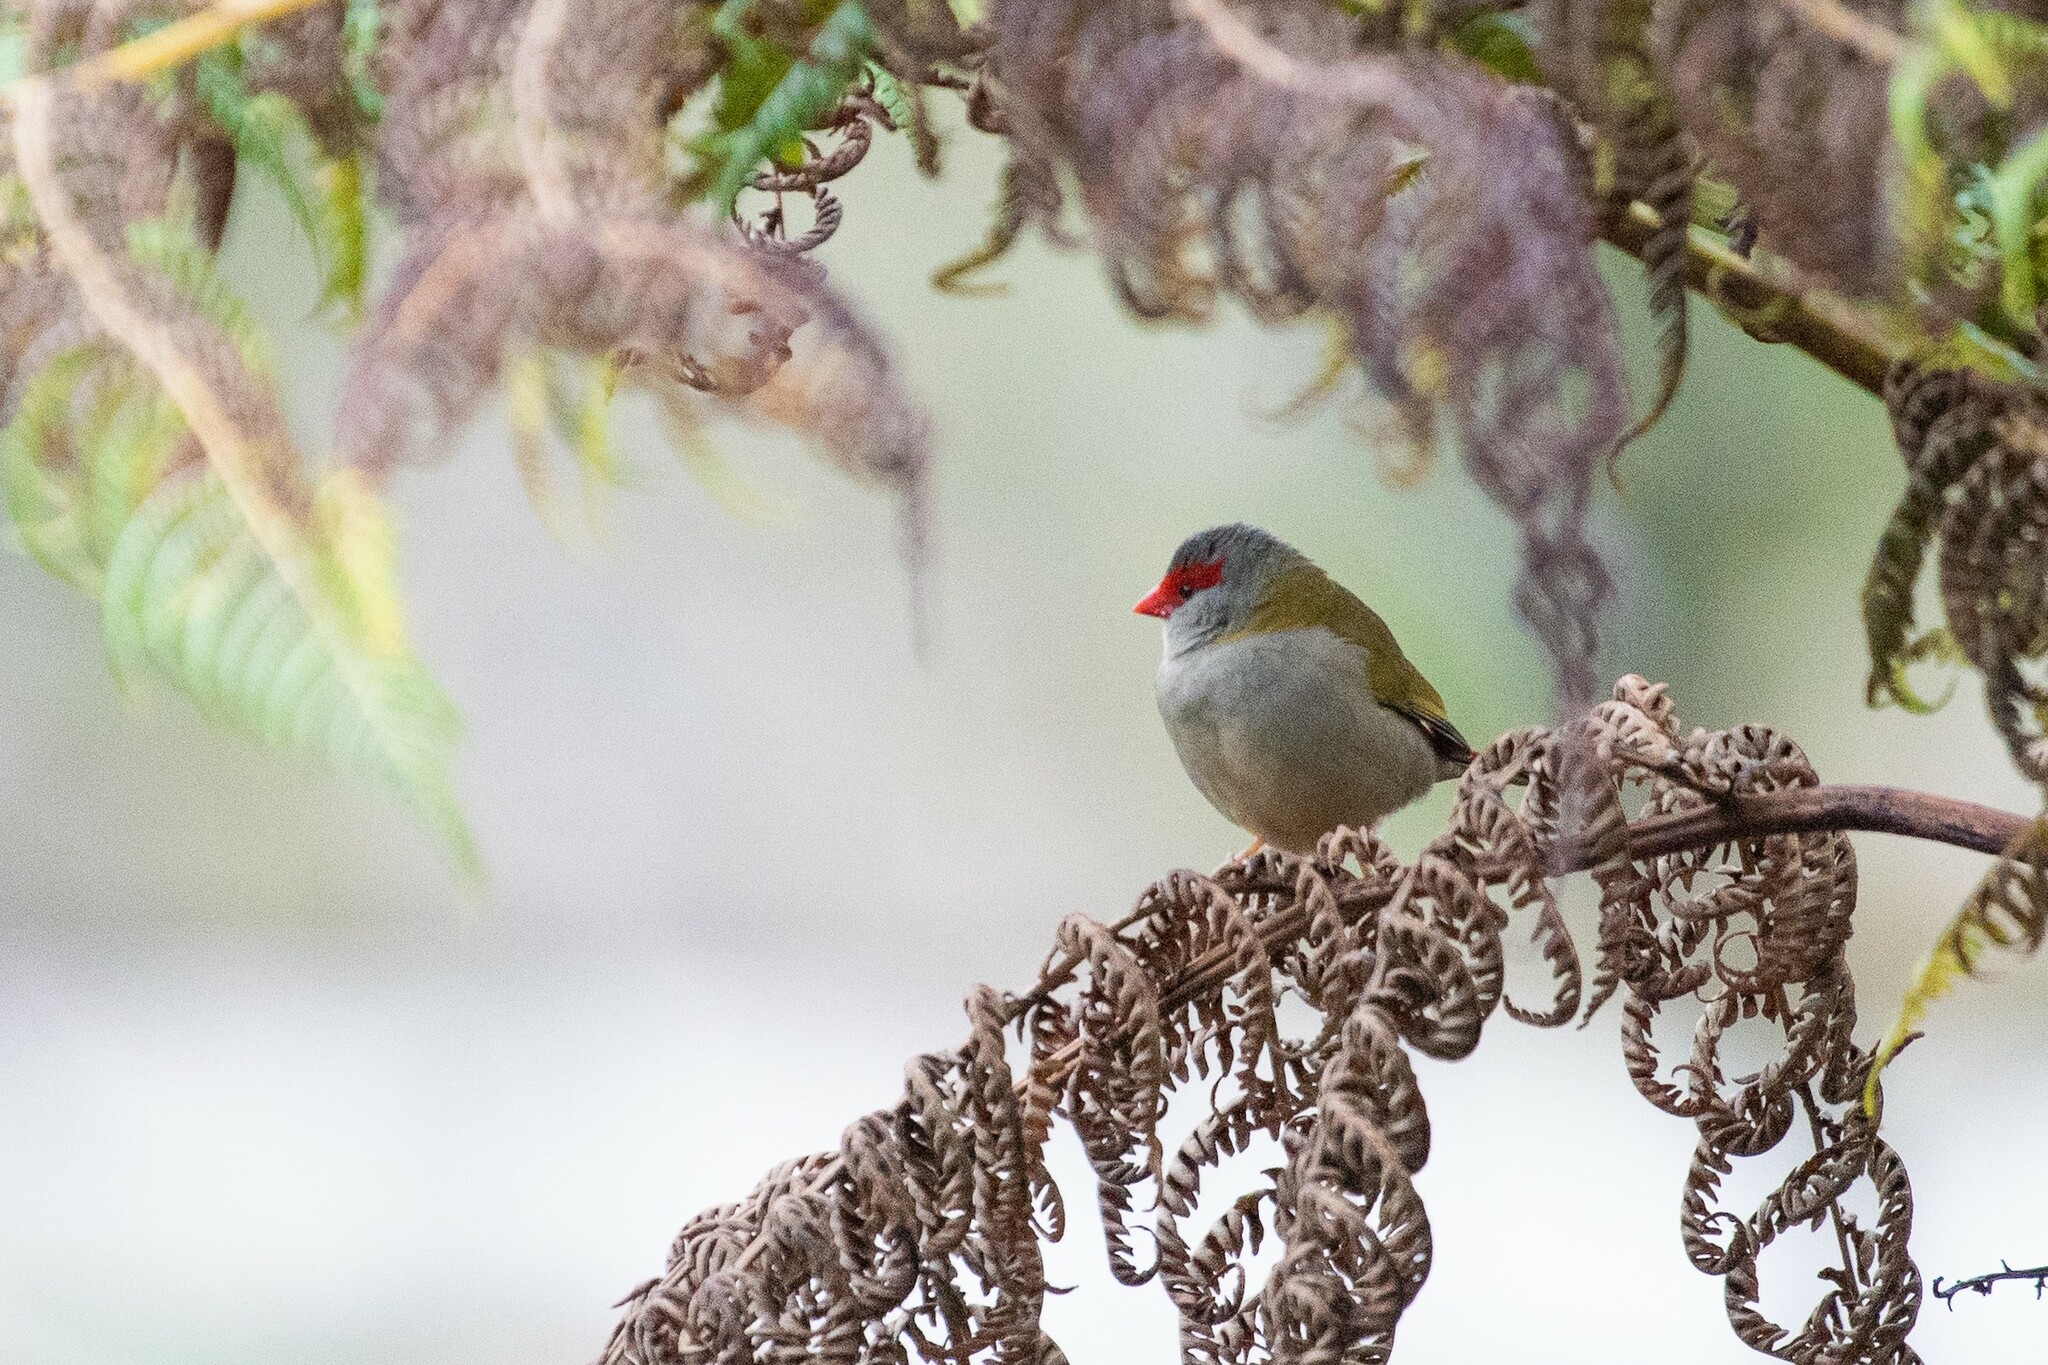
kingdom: Animalia
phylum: Chordata
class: Aves
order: Passeriformes
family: Estrildidae
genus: Neochmia
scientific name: Neochmia temporalis
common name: Red-browed finch
